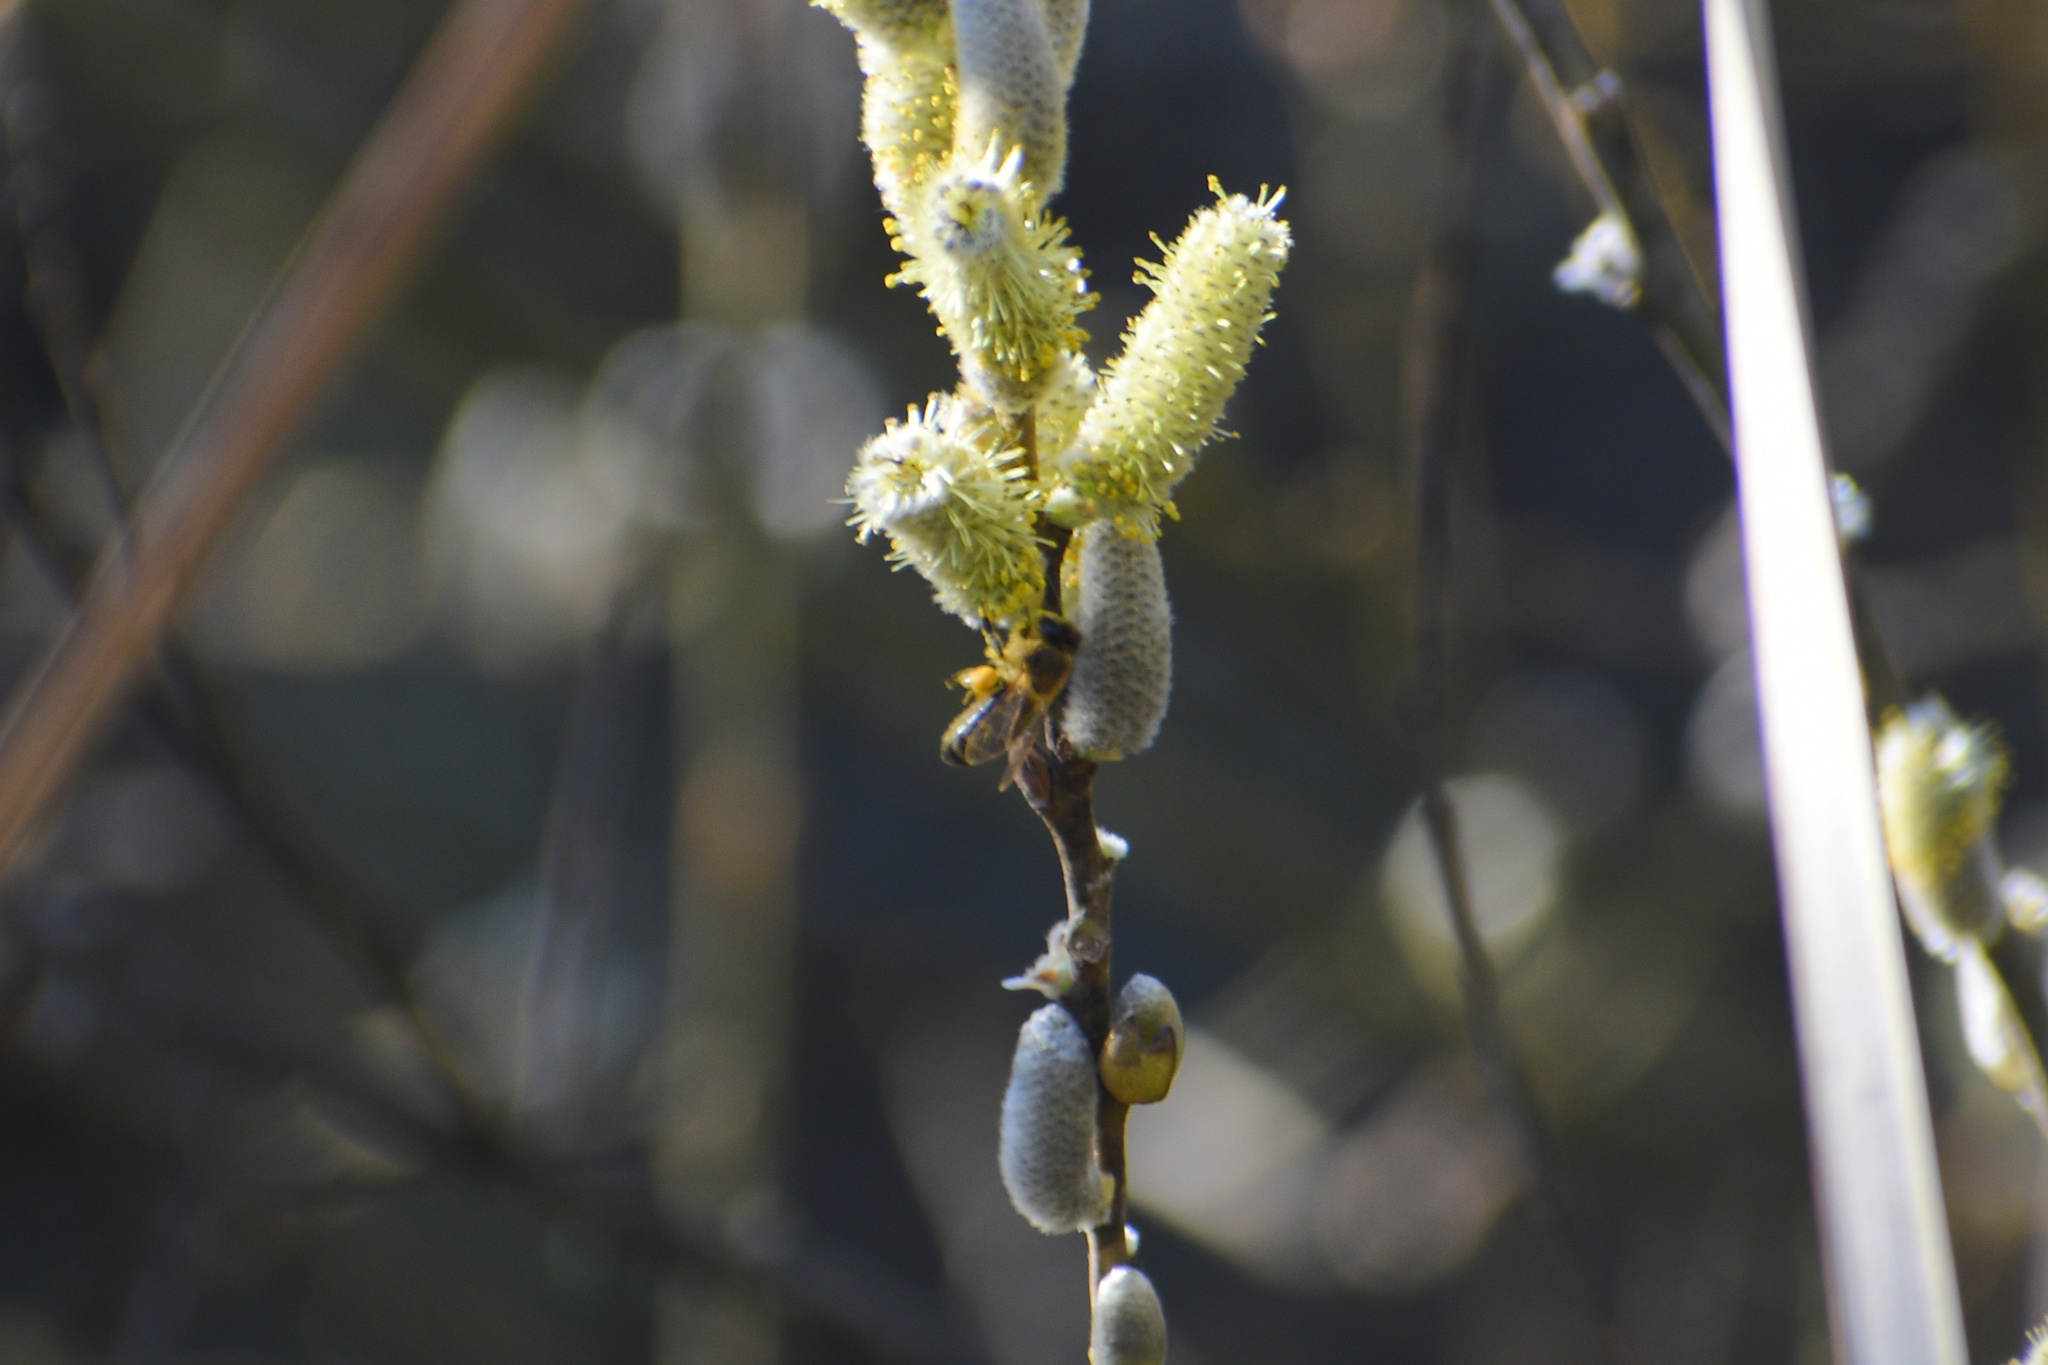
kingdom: Animalia
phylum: Arthropoda
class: Insecta
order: Hymenoptera
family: Apidae
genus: Apis
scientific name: Apis mellifera
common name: Honey bee
